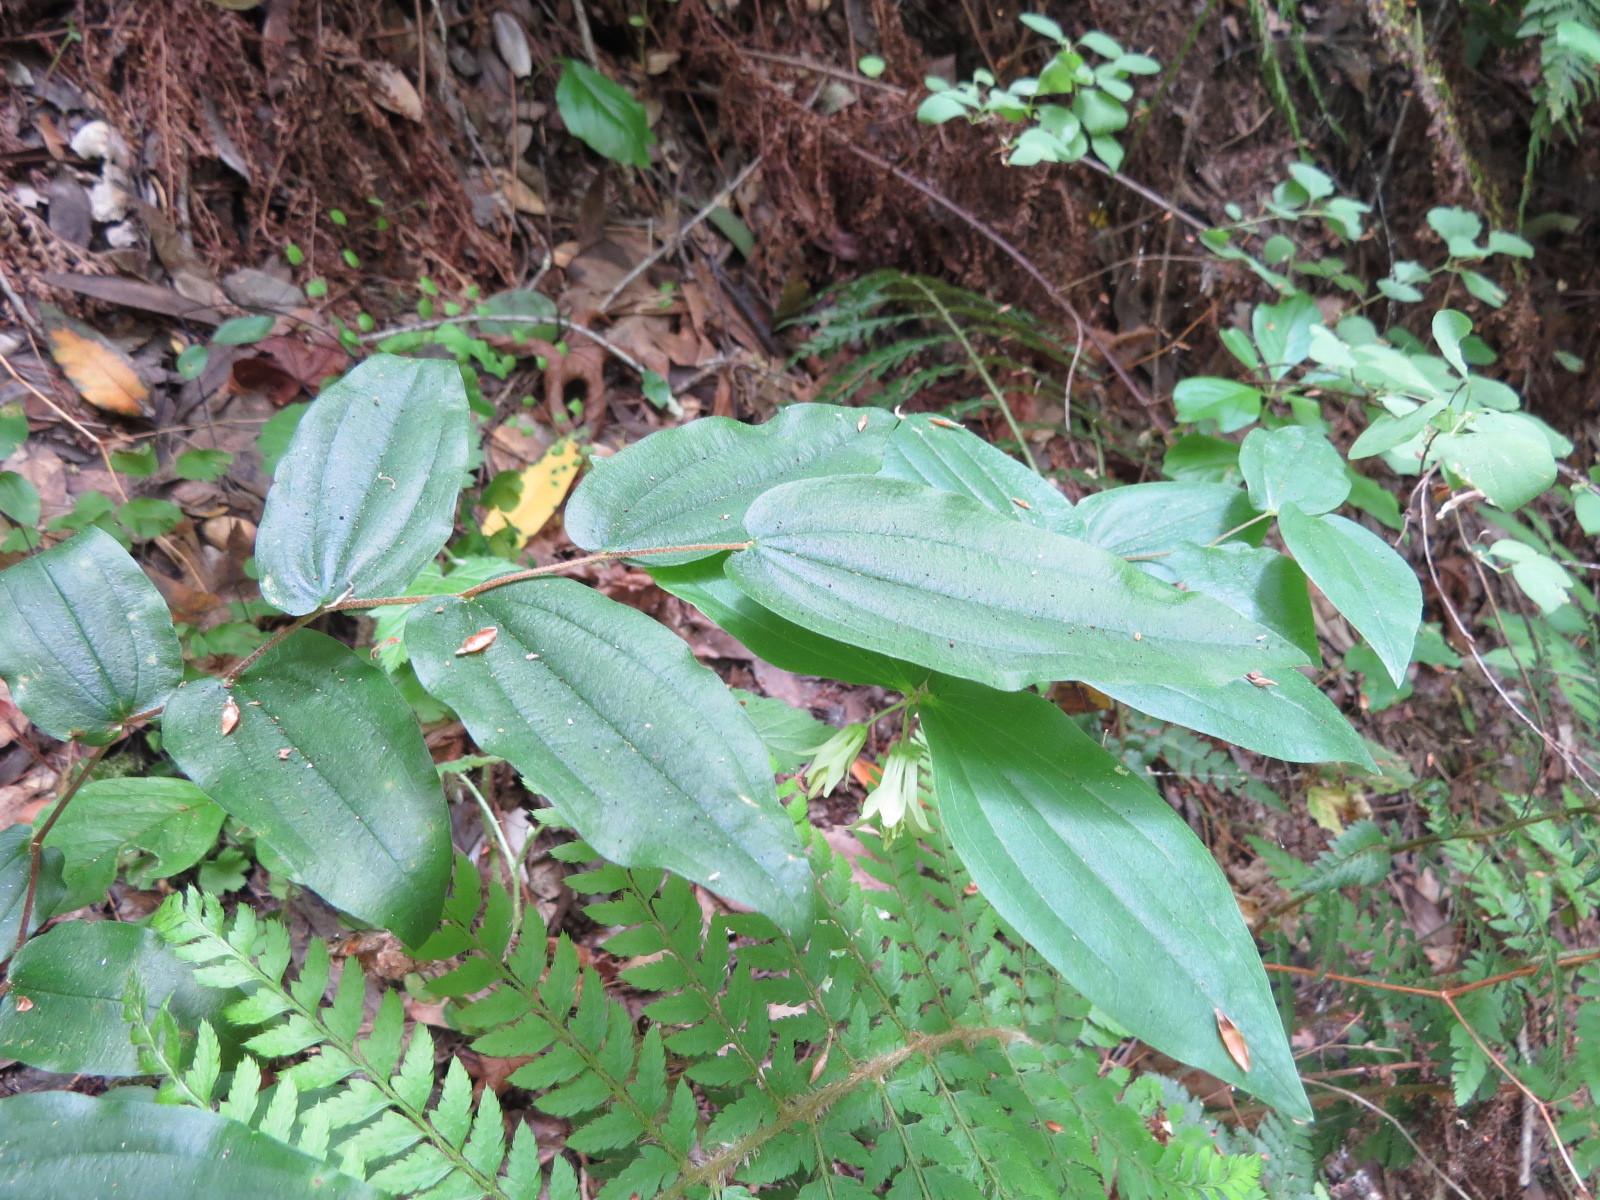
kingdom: Plantae
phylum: Tracheophyta
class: Liliopsida
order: Liliales
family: Liliaceae
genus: Prosartes
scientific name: Prosartes hookeri
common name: Fairy-bells
